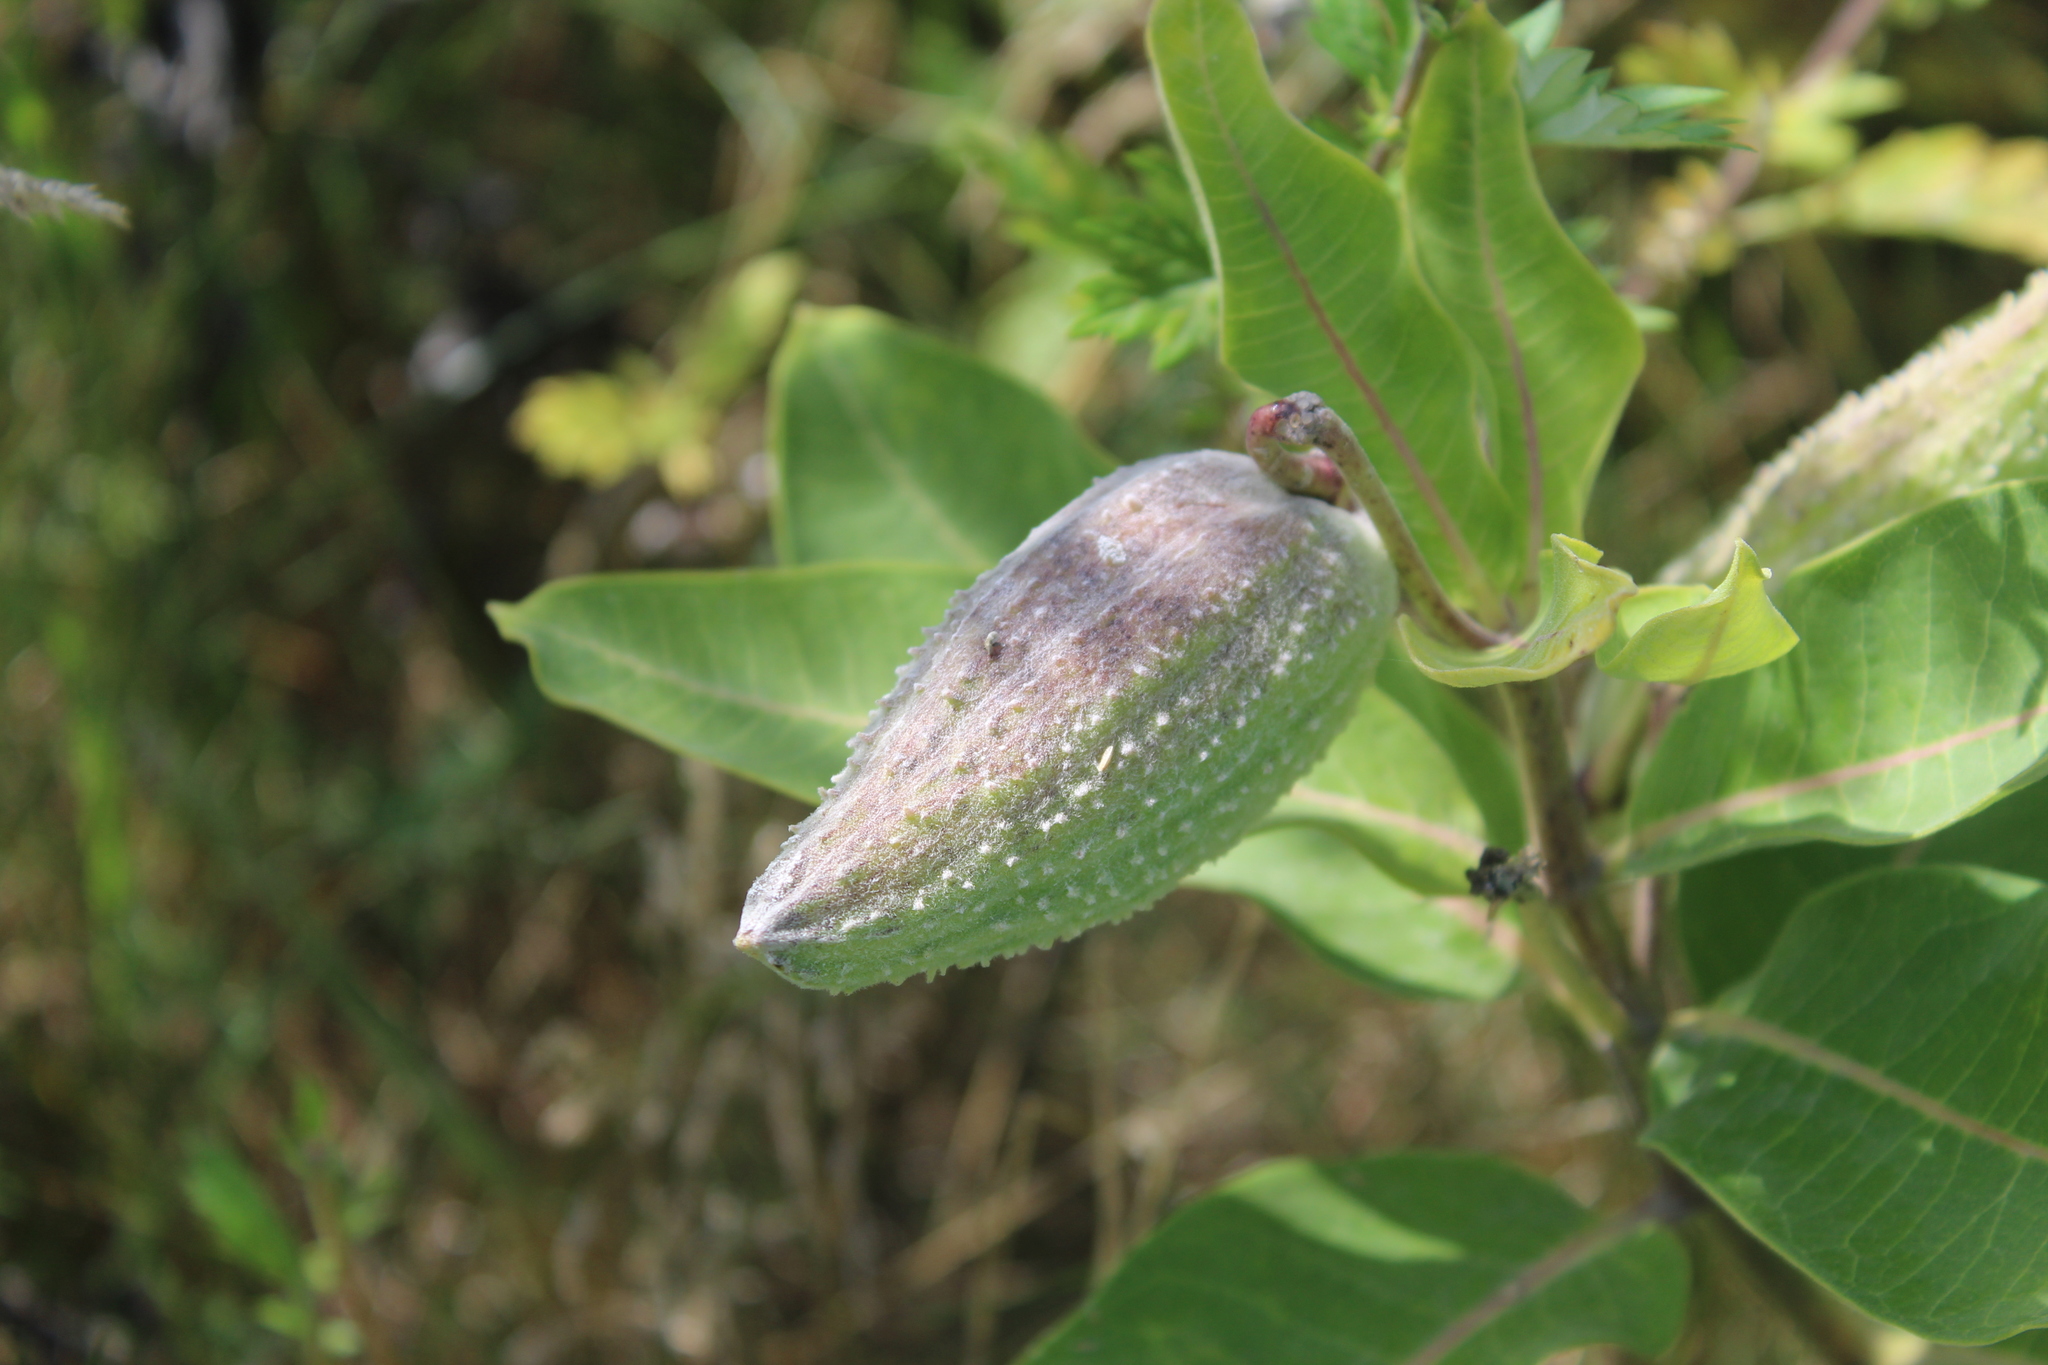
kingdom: Plantae
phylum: Tracheophyta
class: Magnoliopsida
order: Gentianales
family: Apocynaceae
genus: Asclepias
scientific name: Asclepias syriaca
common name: Common milkweed
